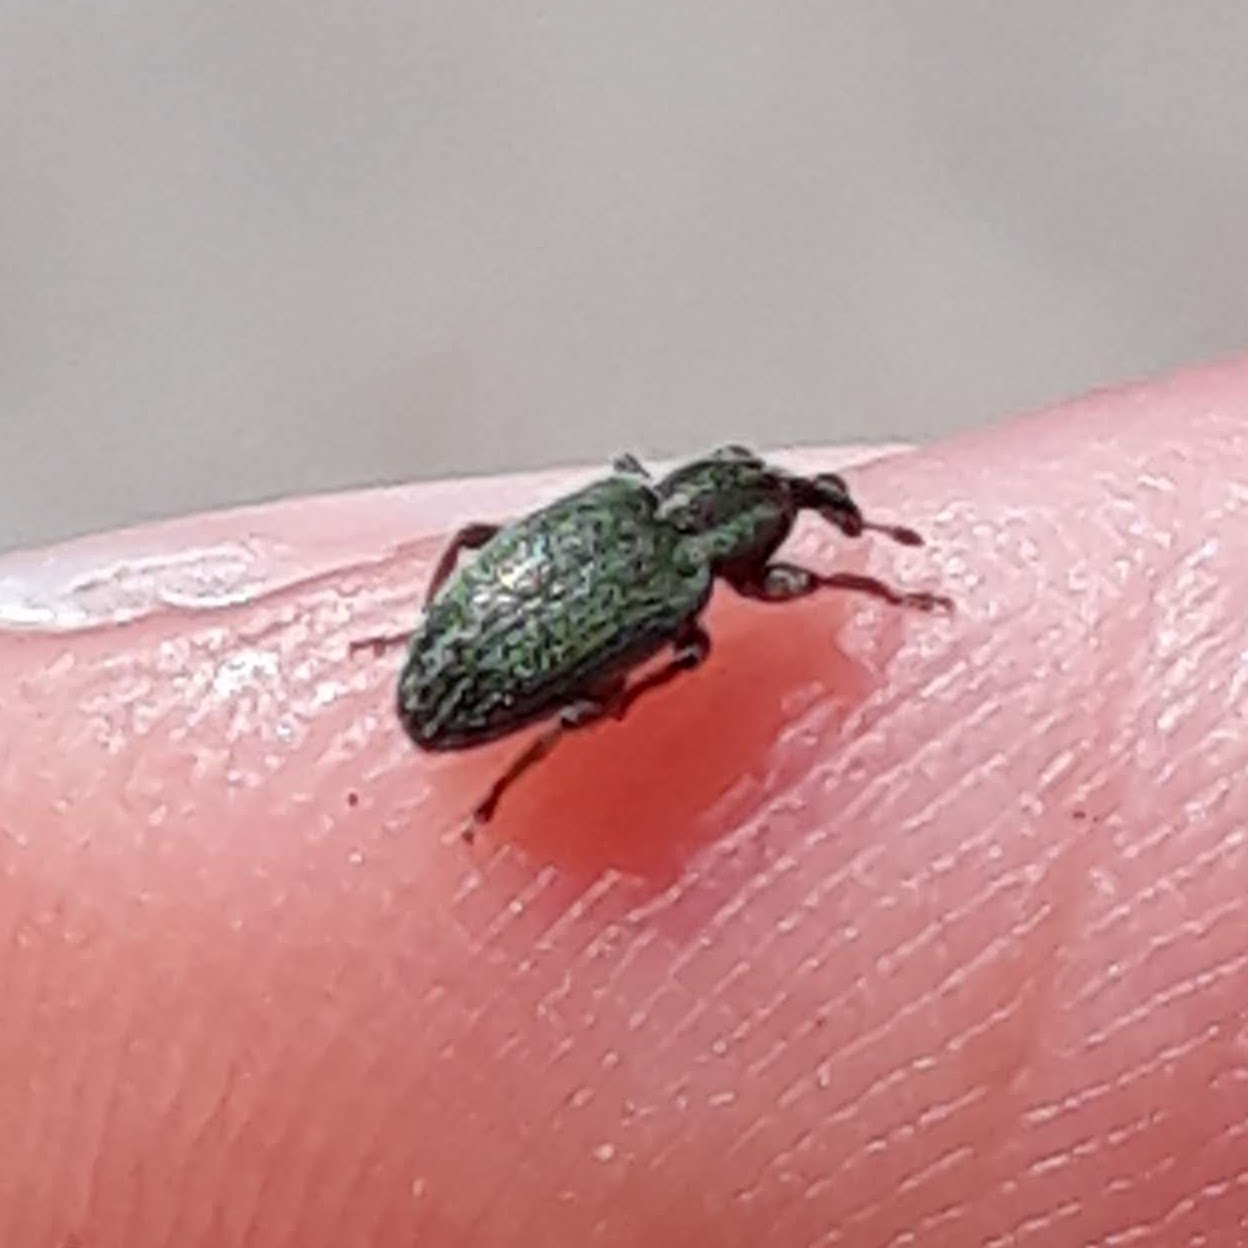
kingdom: Animalia
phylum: Arthropoda
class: Insecta
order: Coleoptera
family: Curculionidae
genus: Hypera
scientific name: Hypera nigrirostris
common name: Black-beaked green weevil
